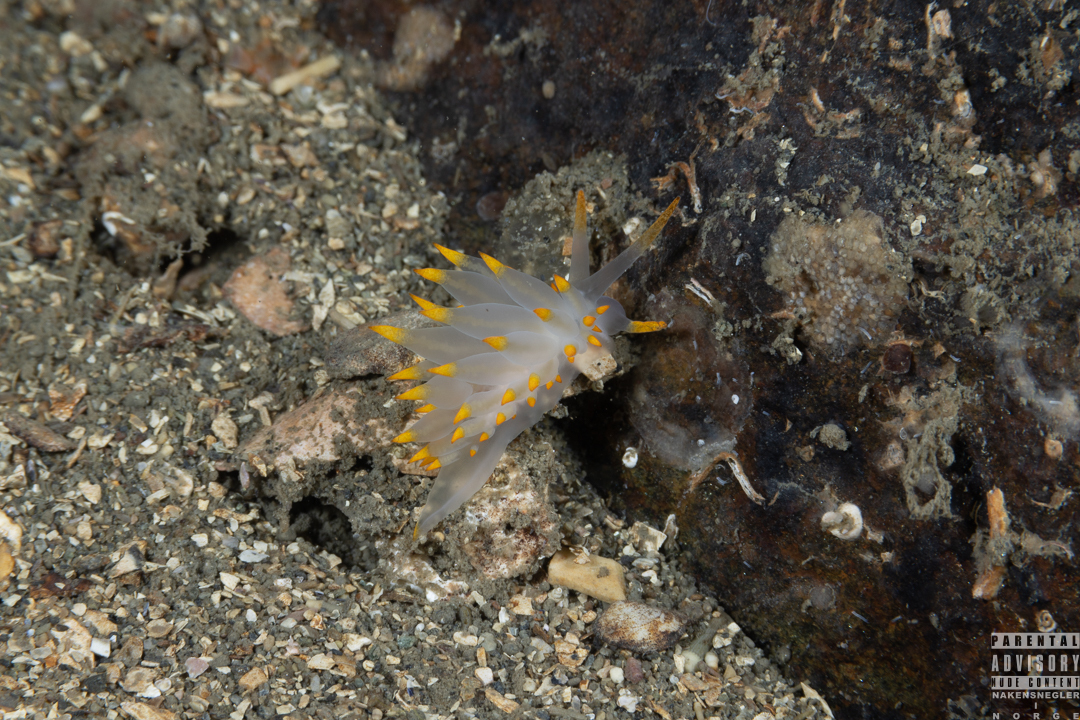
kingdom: Animalia
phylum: Mollusca
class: Gastropoda
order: Nudibranchia
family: Eubranchidae
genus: Amphorina
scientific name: Amphorina farrani
